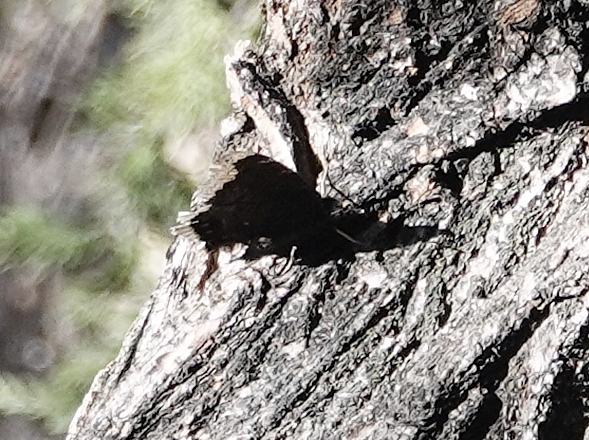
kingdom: Animalia
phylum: Arthropoda
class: Insecta
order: Lepidoptera
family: Nymphalidae
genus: Nymphalis
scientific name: Nymphalis antiopa
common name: Camberwell beauty
